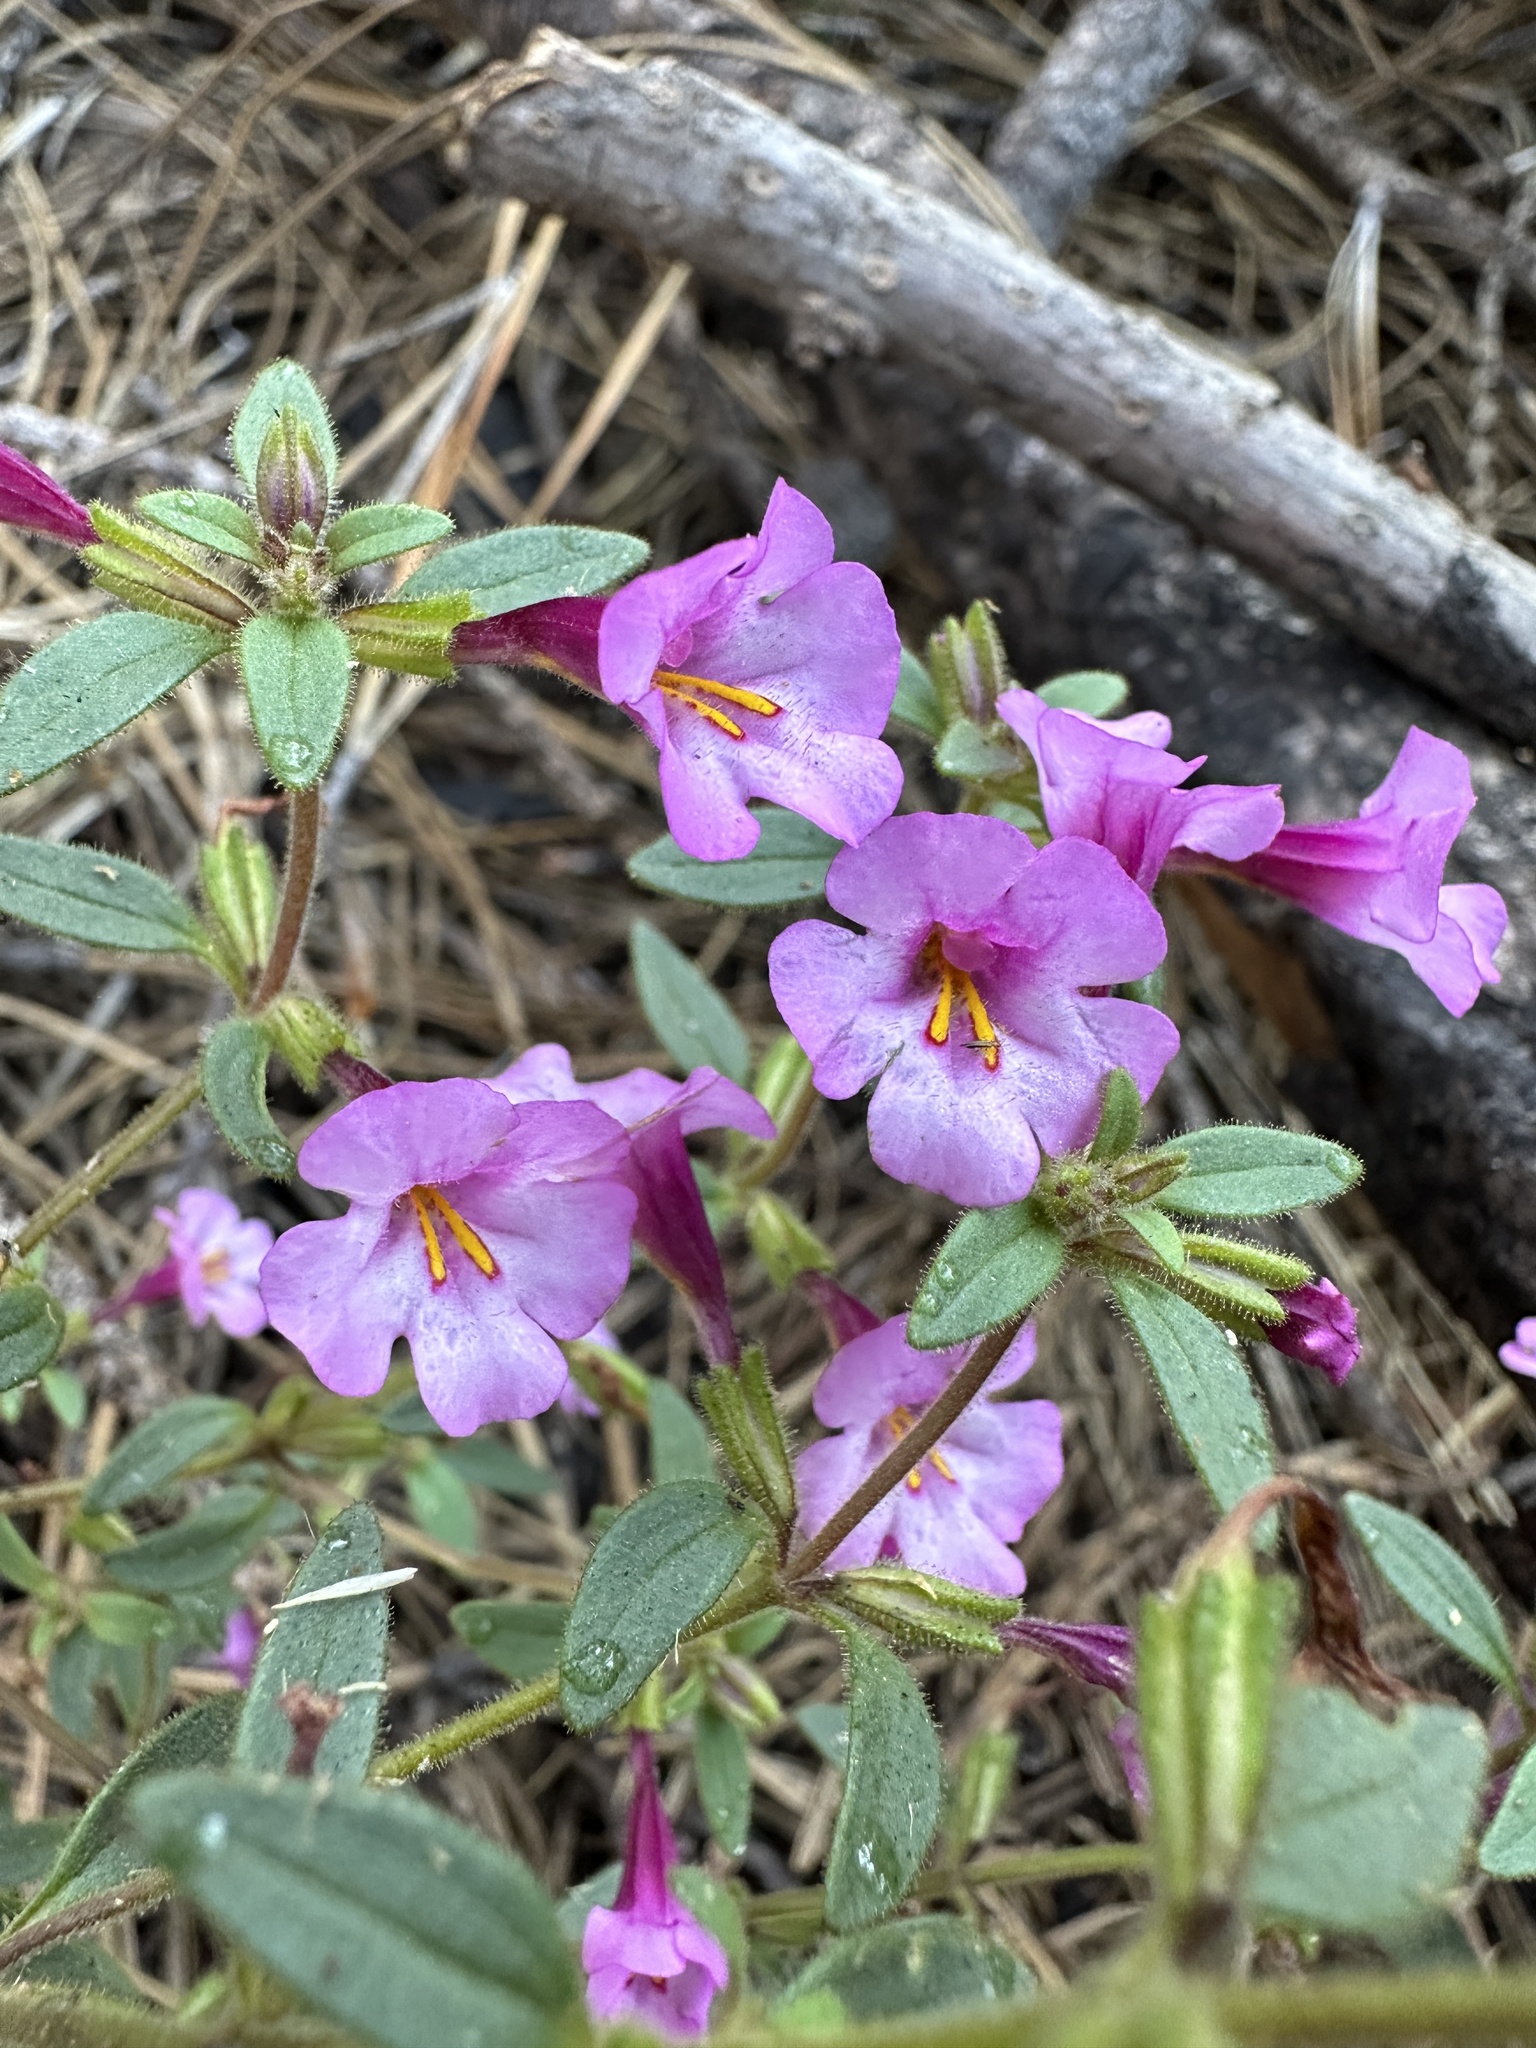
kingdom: Plantae
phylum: Tracheophyta
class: Magnoliopsida
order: Lamiales
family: Phrymaceae
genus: Diplacus
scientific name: Diplacus torreyi
